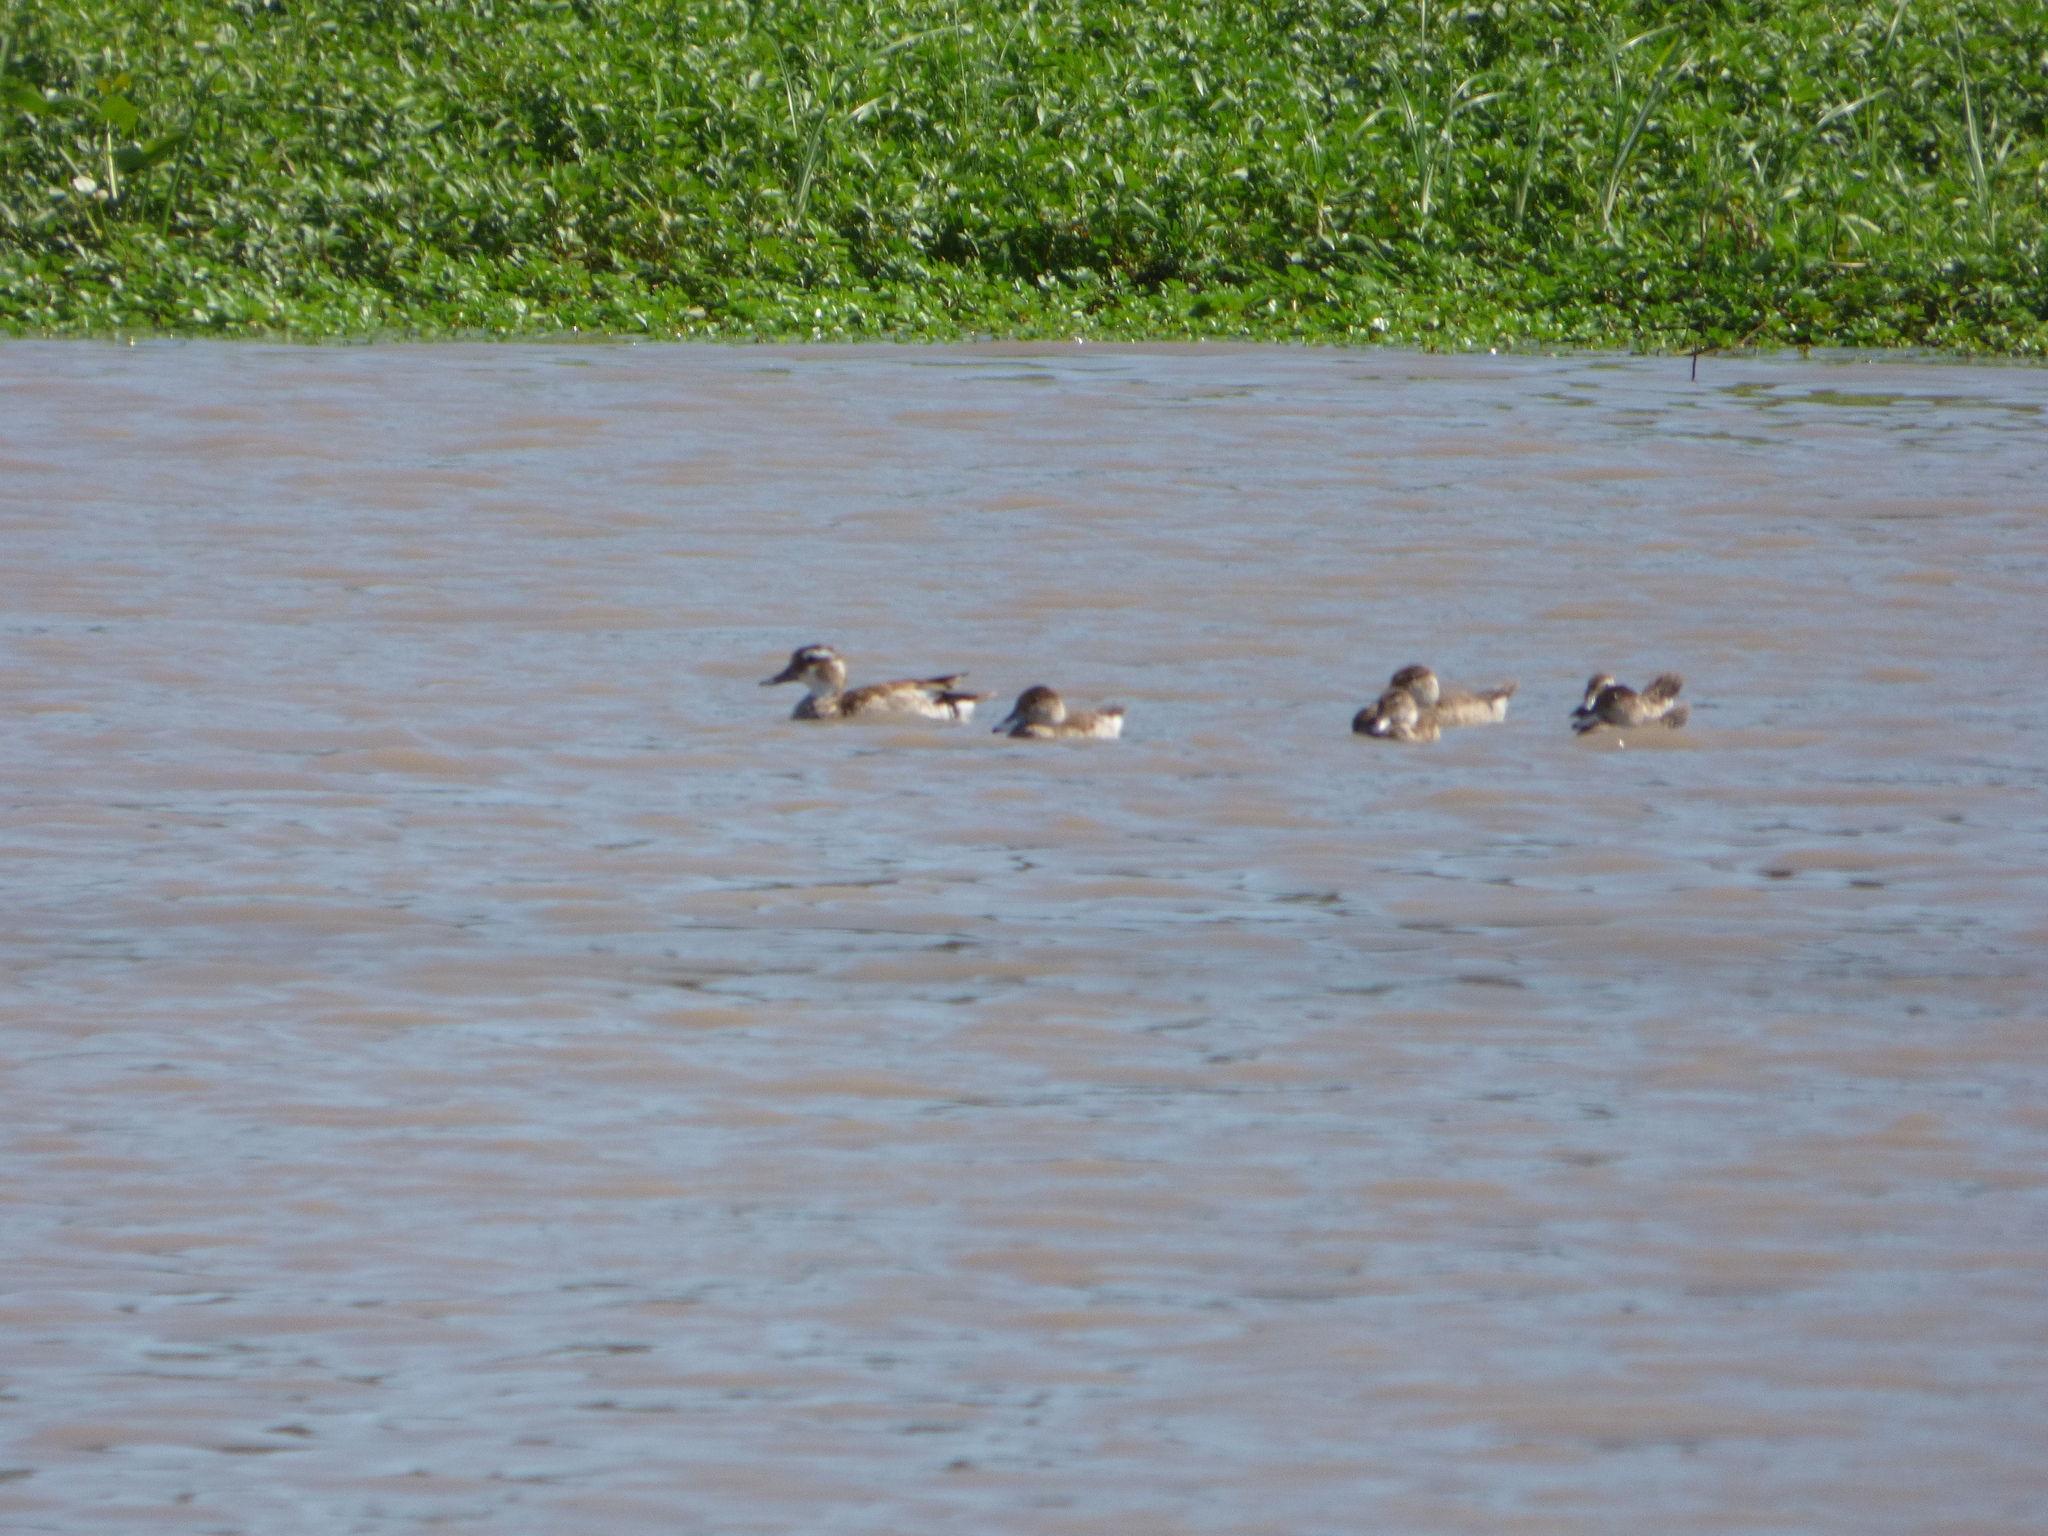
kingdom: Animalia
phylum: Chordata
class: Aves
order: Anseriformes
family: Anatidae
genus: Callonetta
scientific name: Callonetta leucophrys
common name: Ringed teal
